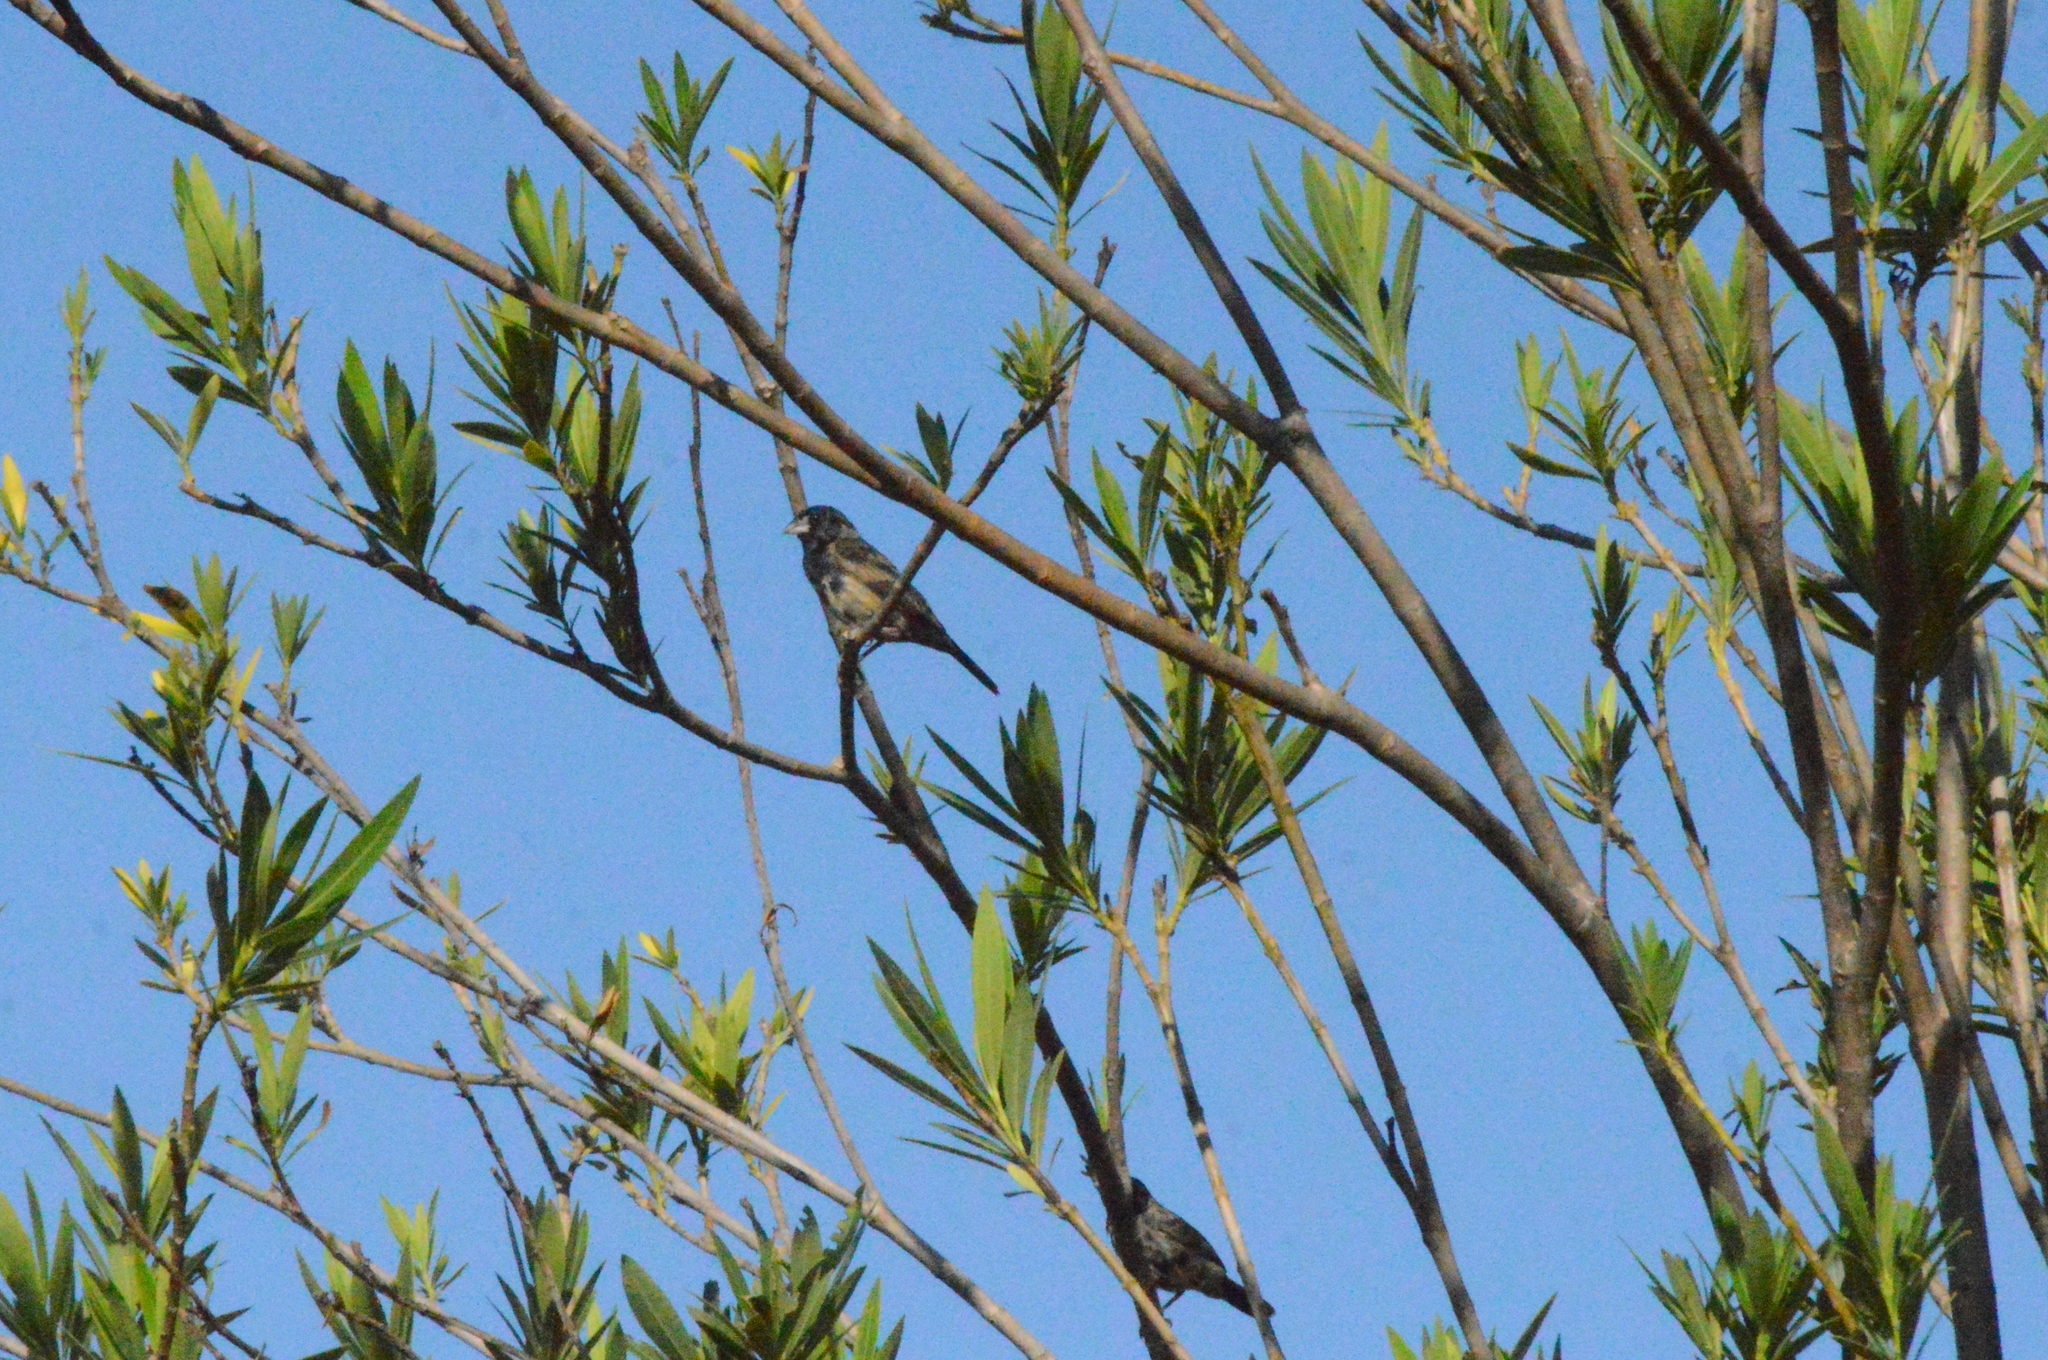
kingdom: Animalia
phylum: Chordata
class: Aves
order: Passeriformes
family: Thraupidae
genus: Volatinia
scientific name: Volatinia jacarina
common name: Blue-black grassquit
